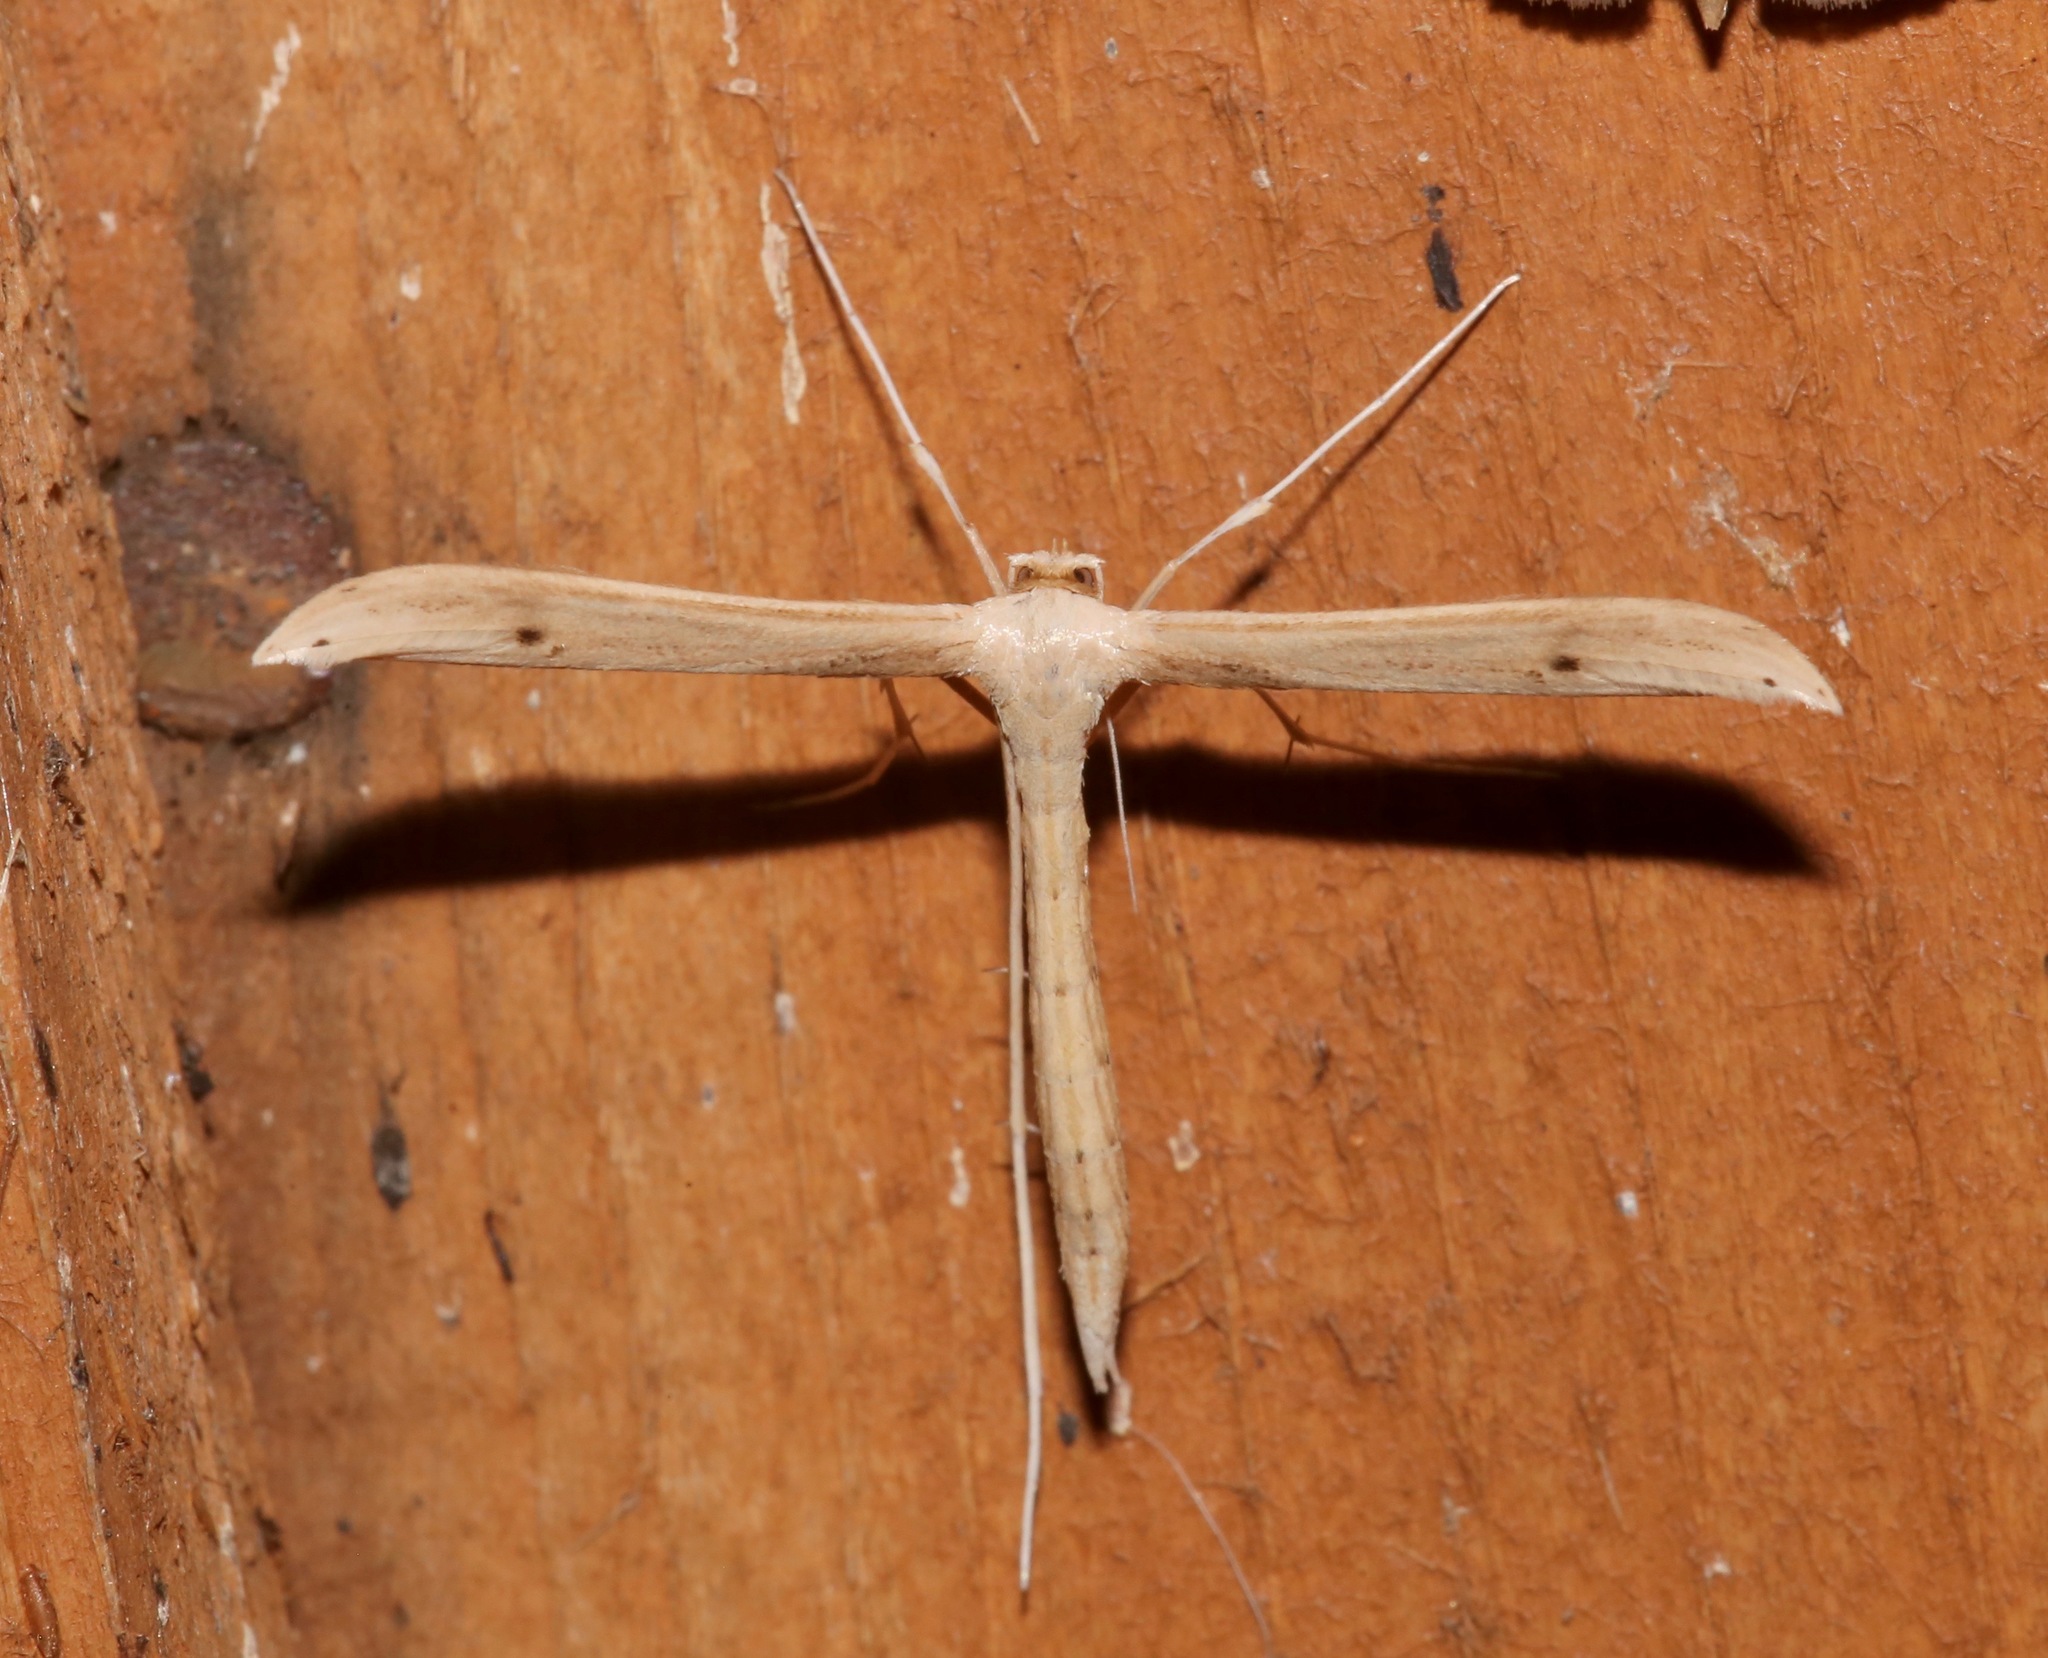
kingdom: Animalia
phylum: Arthropoda
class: Insecta
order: Lepidoptera
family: Pterophoridae
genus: Hellinsia
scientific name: Hellinsia balanotes
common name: Baccharis borer
